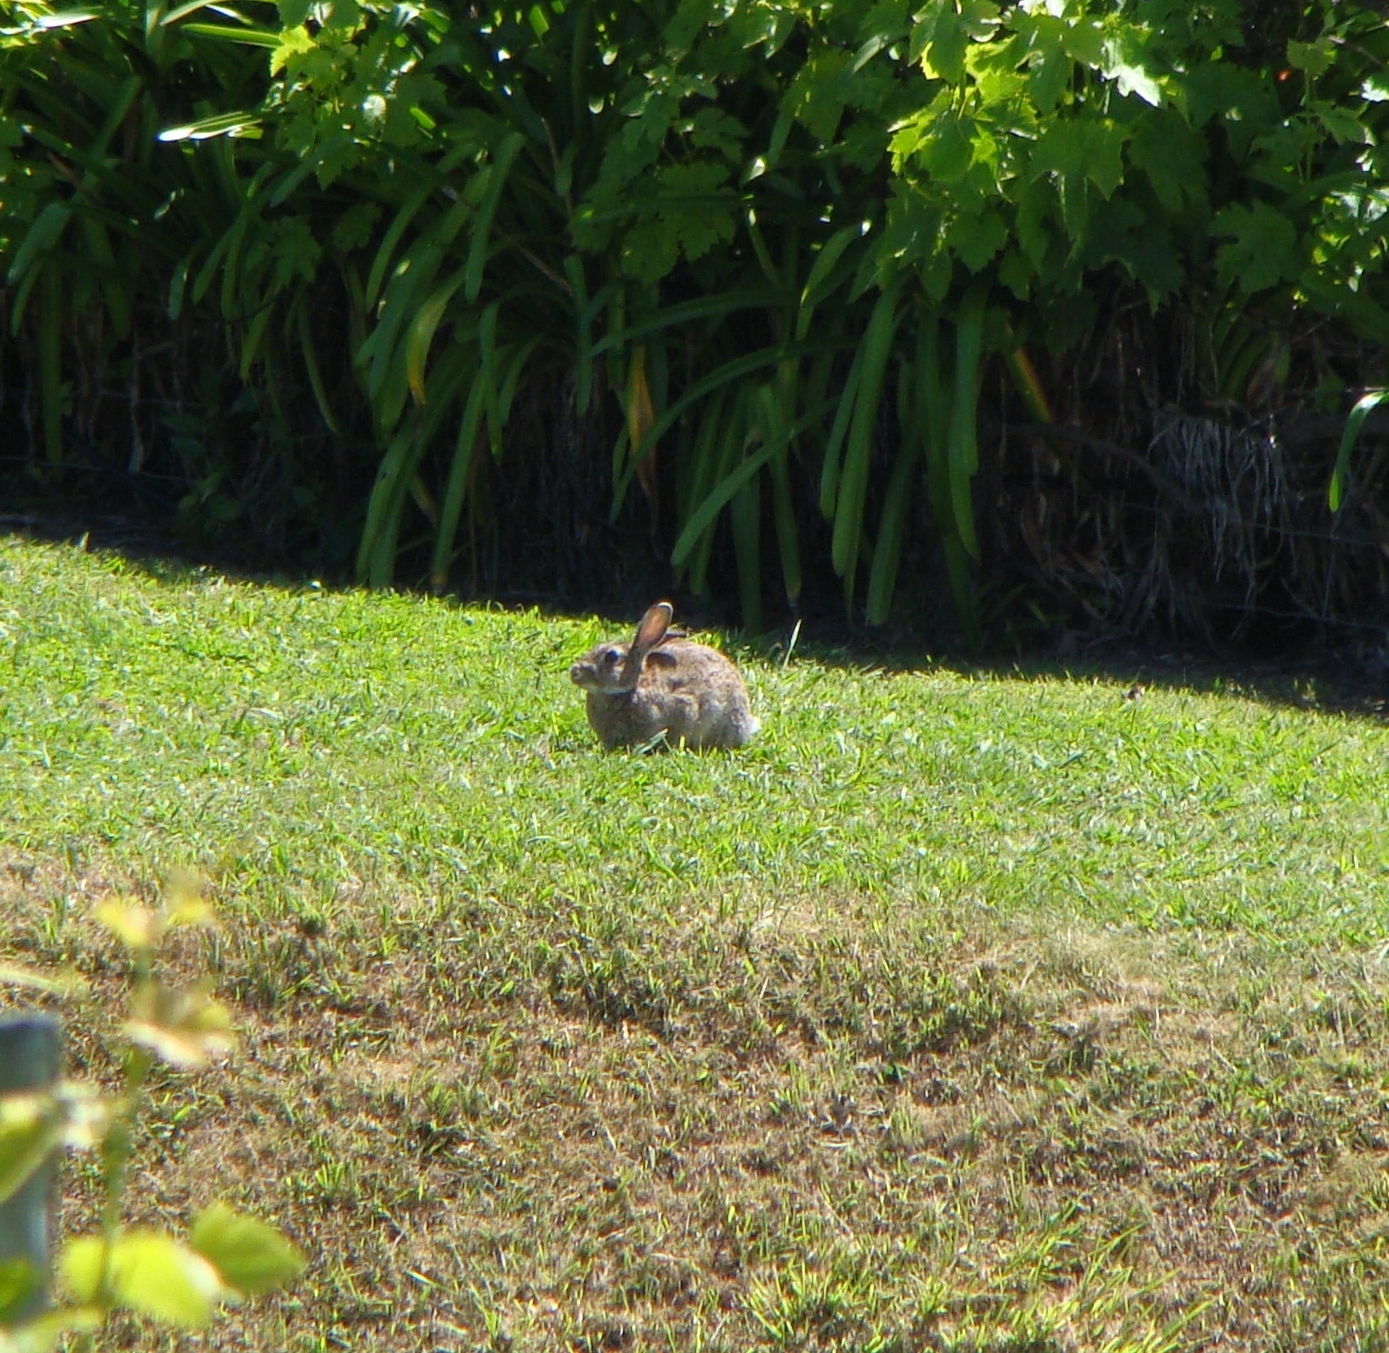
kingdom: Animalia
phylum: Chordata
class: Mammalia
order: Lagomorpha
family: Leporidae
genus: Oryctolagus
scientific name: Oryctolagus cuniculus
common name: European rabbit
